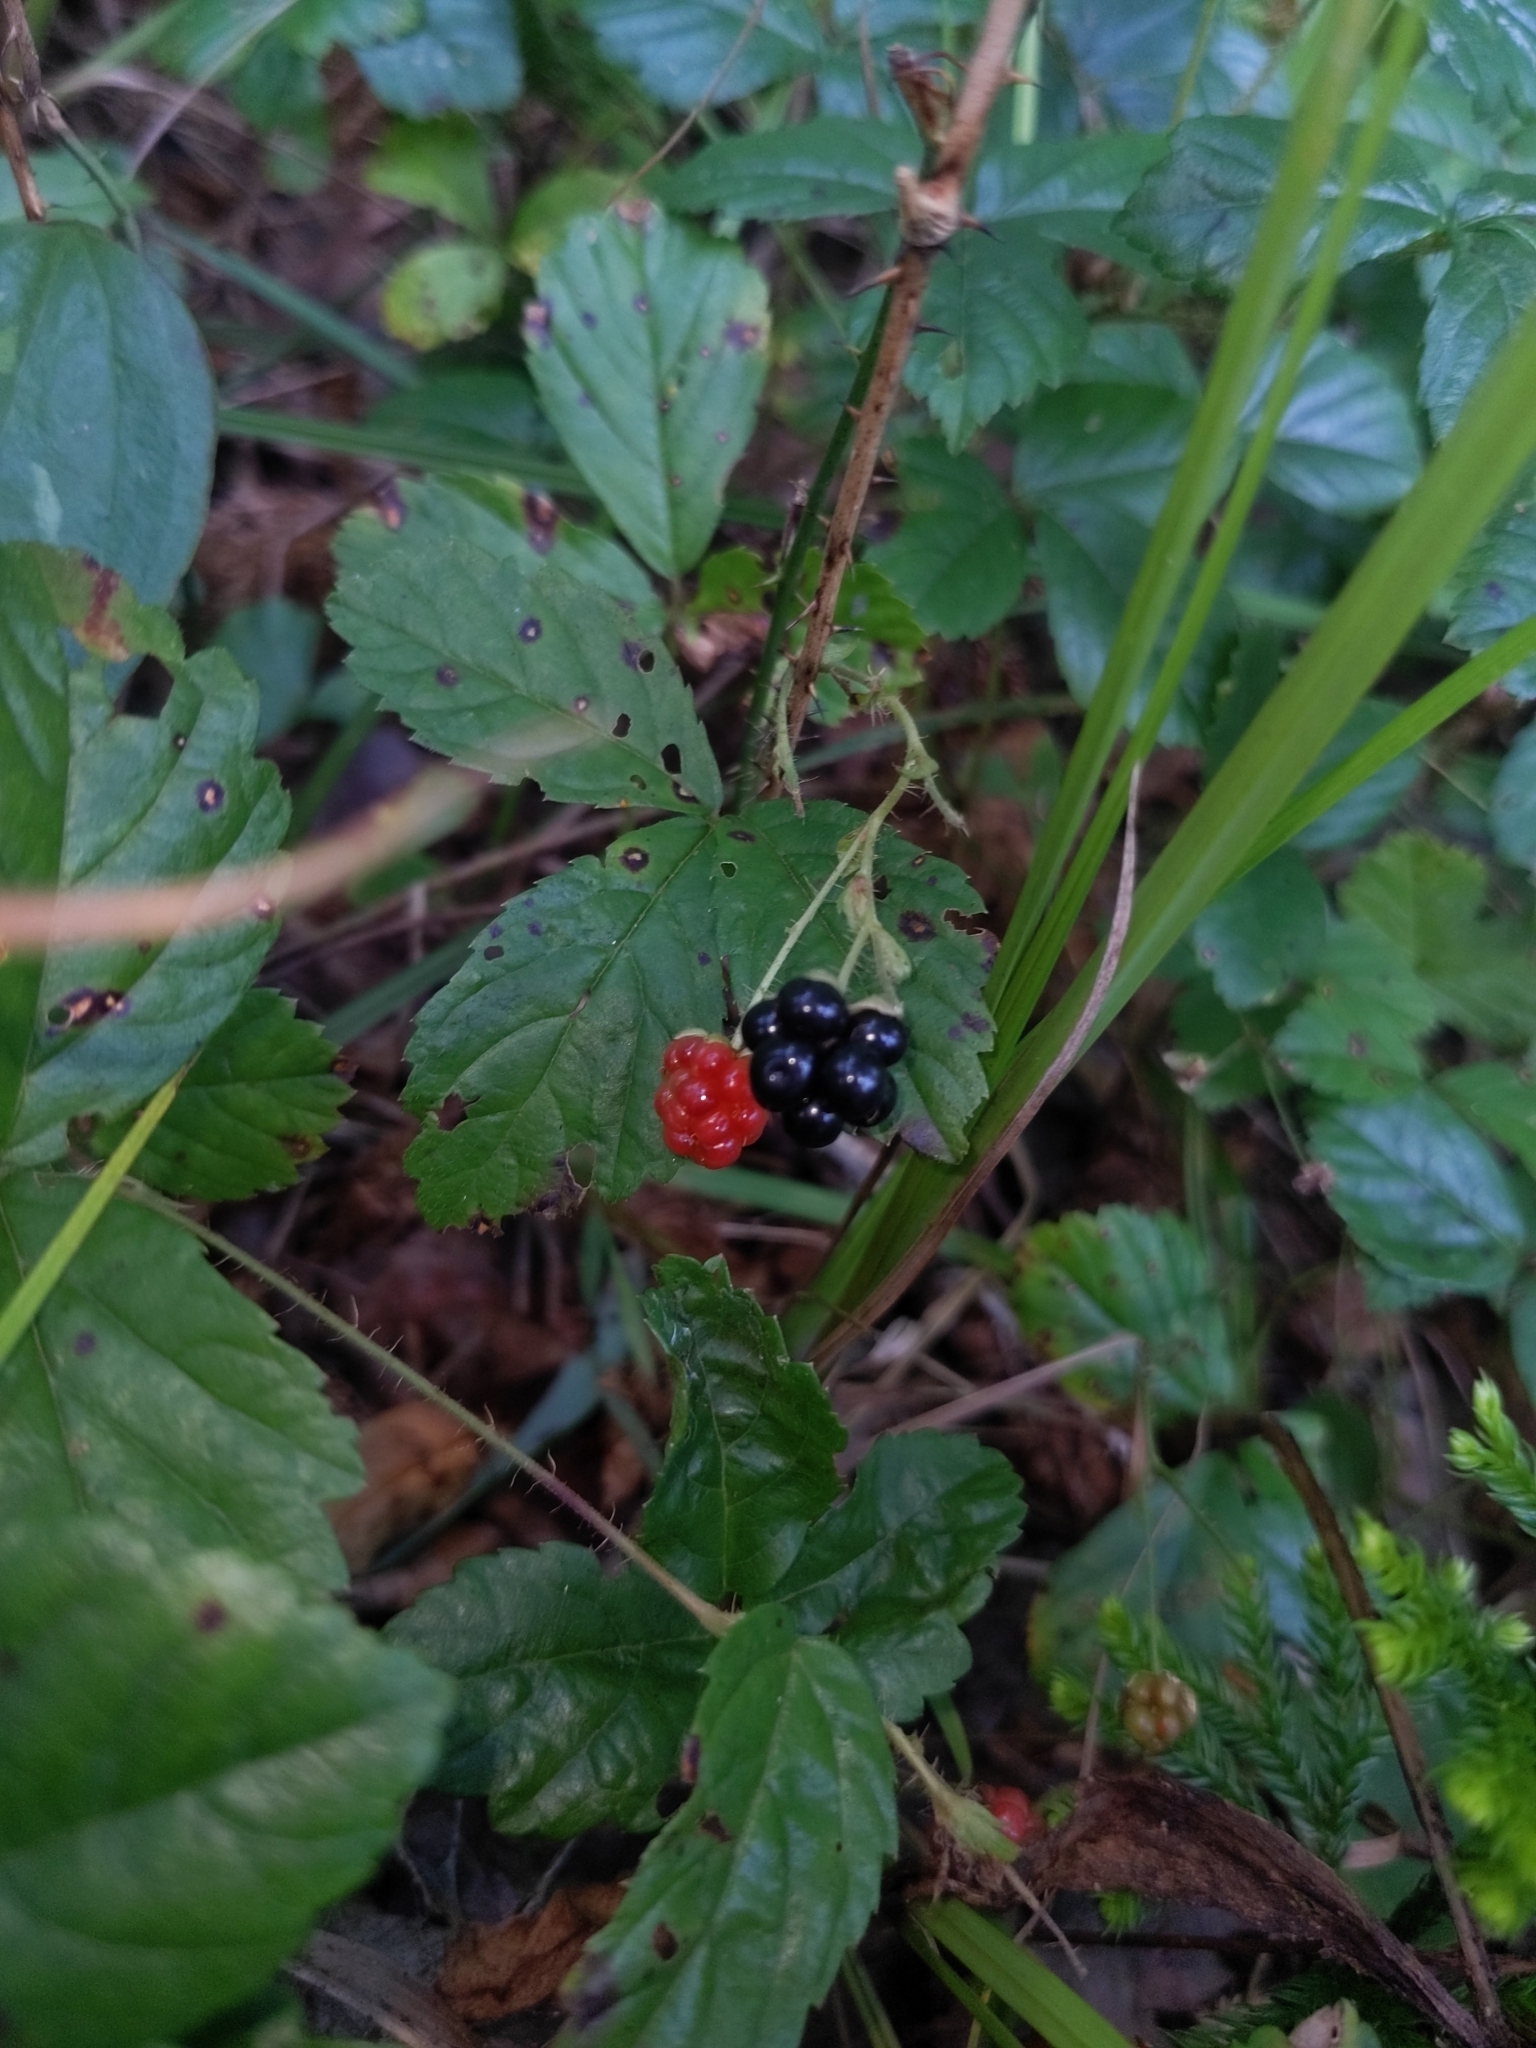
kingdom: Plantae
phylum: Tracheophyta
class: Magnoliopsida
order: Rosales
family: Rosaceae
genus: Rubus
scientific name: Rubus hispidus
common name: Running blackberry
